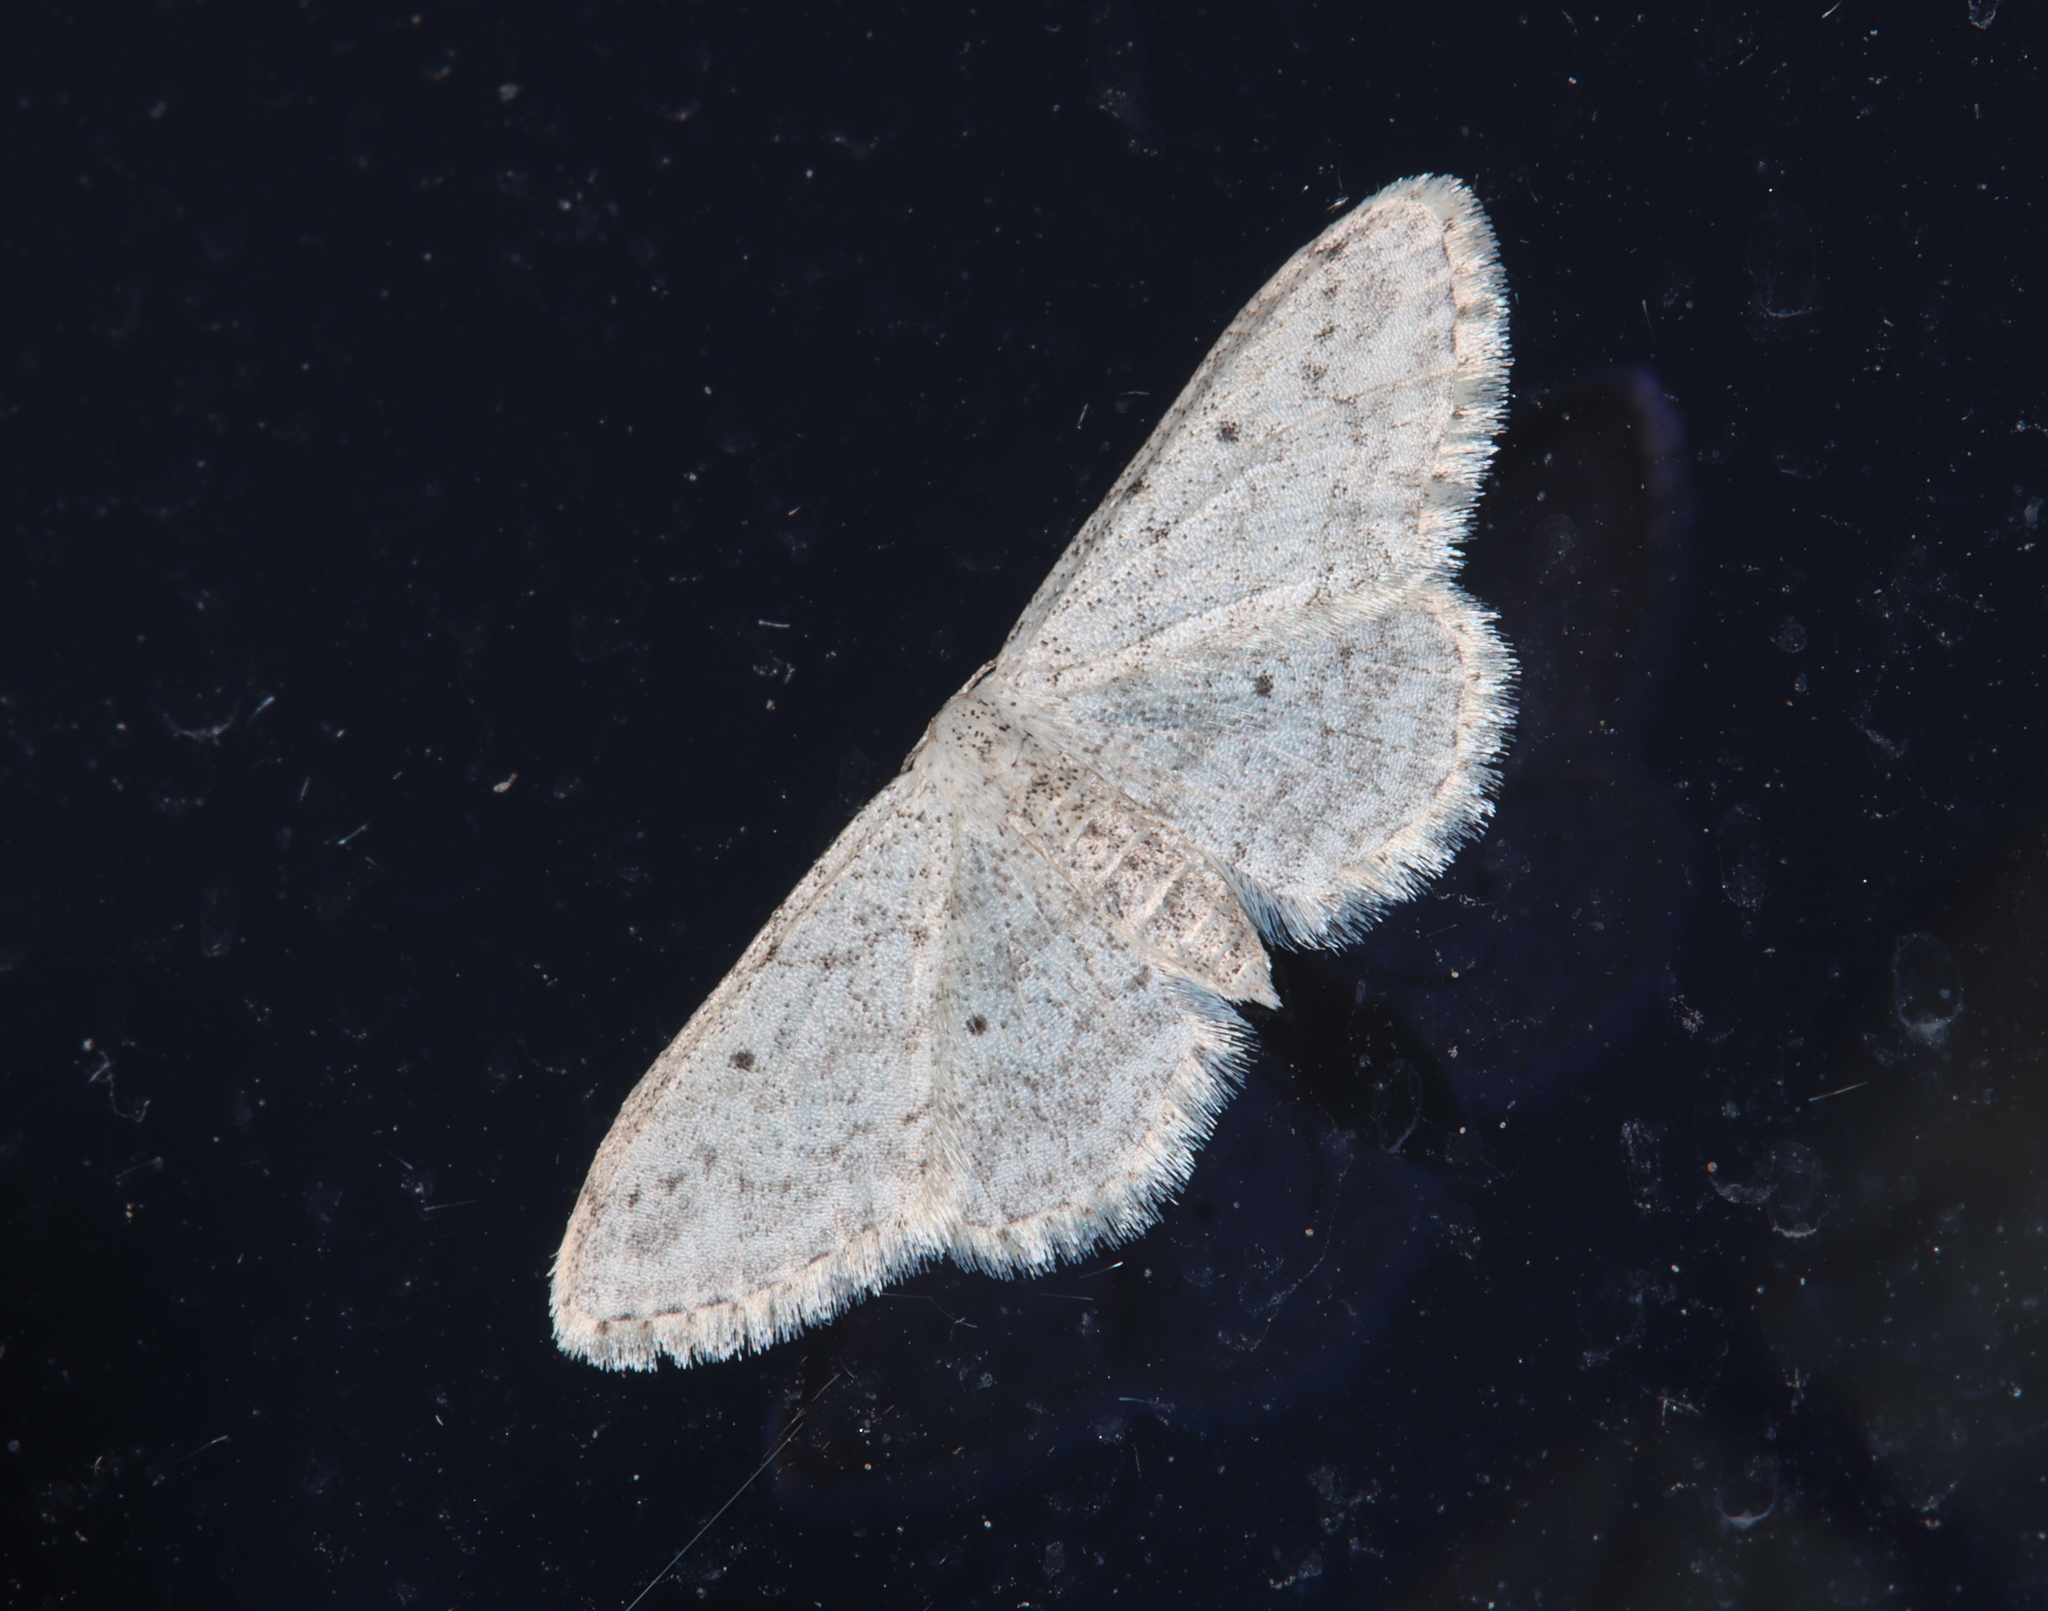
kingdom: Animalia
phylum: Arthropoda
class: Insecta
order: Lepidoptera
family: Geometridae
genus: Idaea
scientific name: Idaea seriata
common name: Small dusty wave
